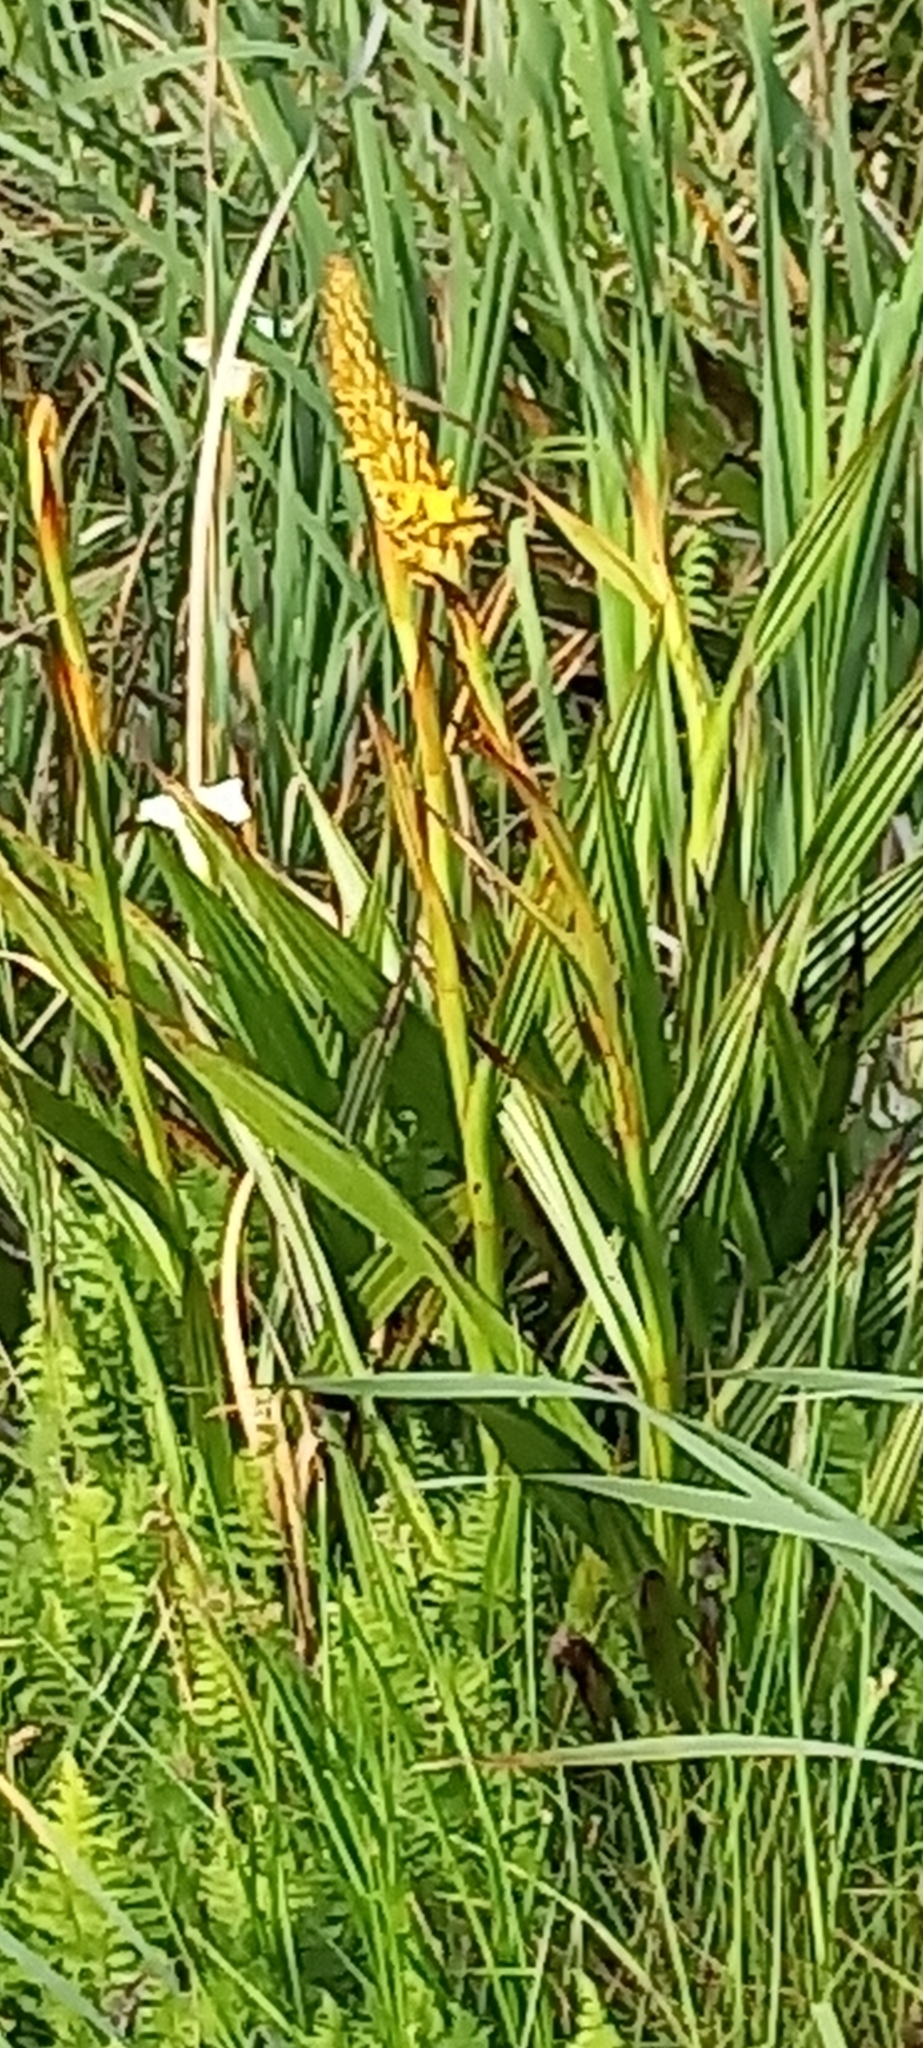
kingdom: Plantae
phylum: Tracheophyta
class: Liliopsida
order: Commelinales
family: Haemodoraceae
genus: Wachendorfia
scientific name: Wachendorfia thyrsiflora
